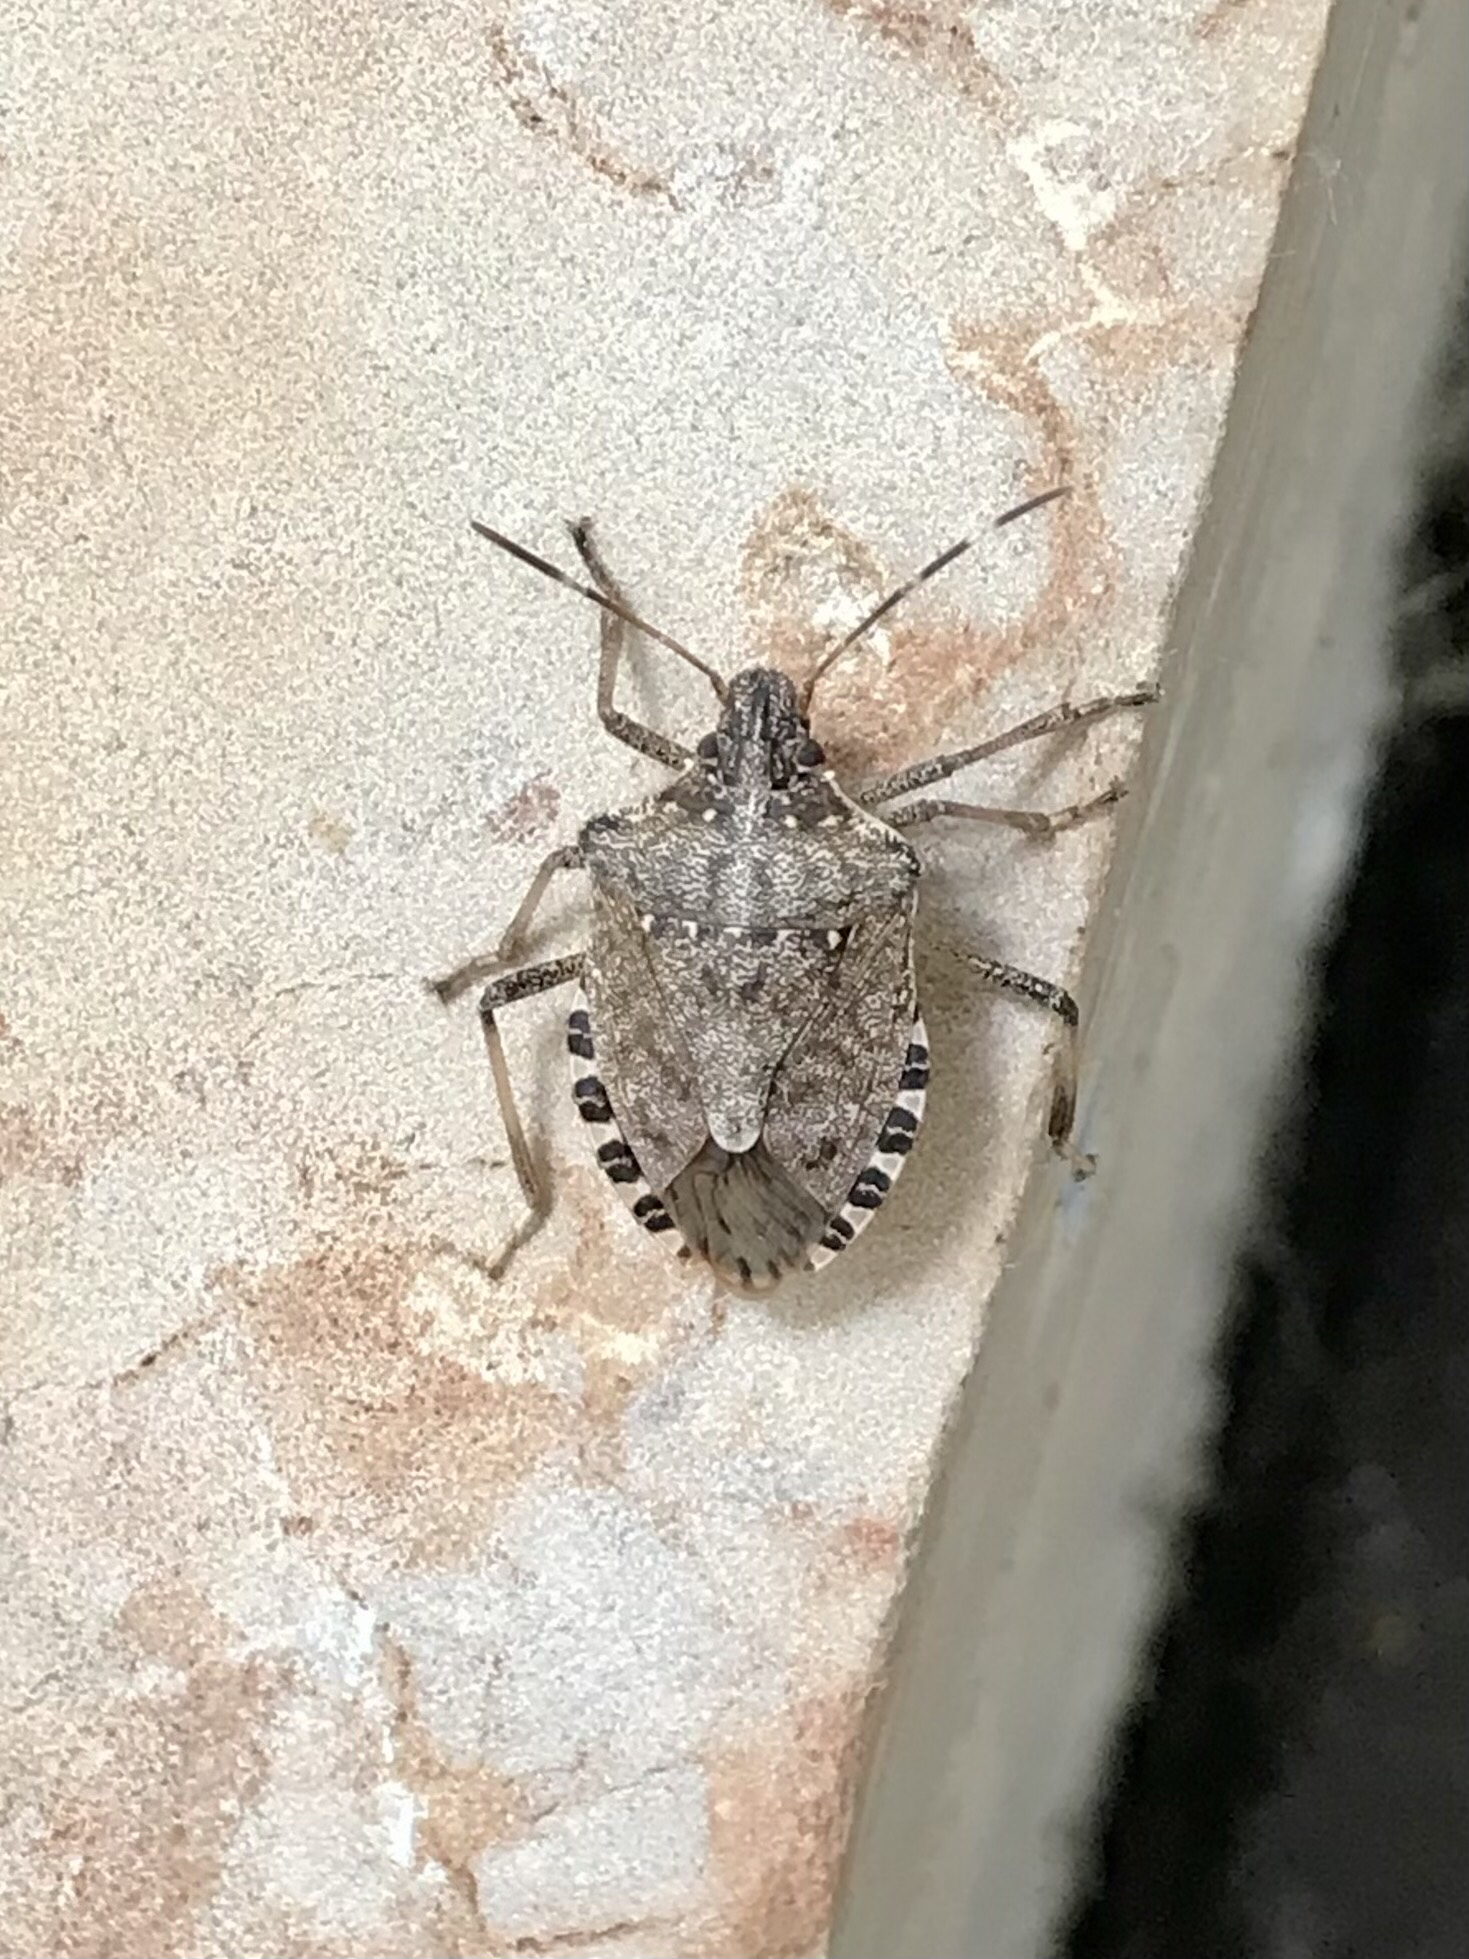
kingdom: Animalia
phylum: Arthropoda
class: Insecta
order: Hemiptera
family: Pentatomidae
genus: Halyomorpha
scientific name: Halyomorpha halys
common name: Brown marmorated stink bug
